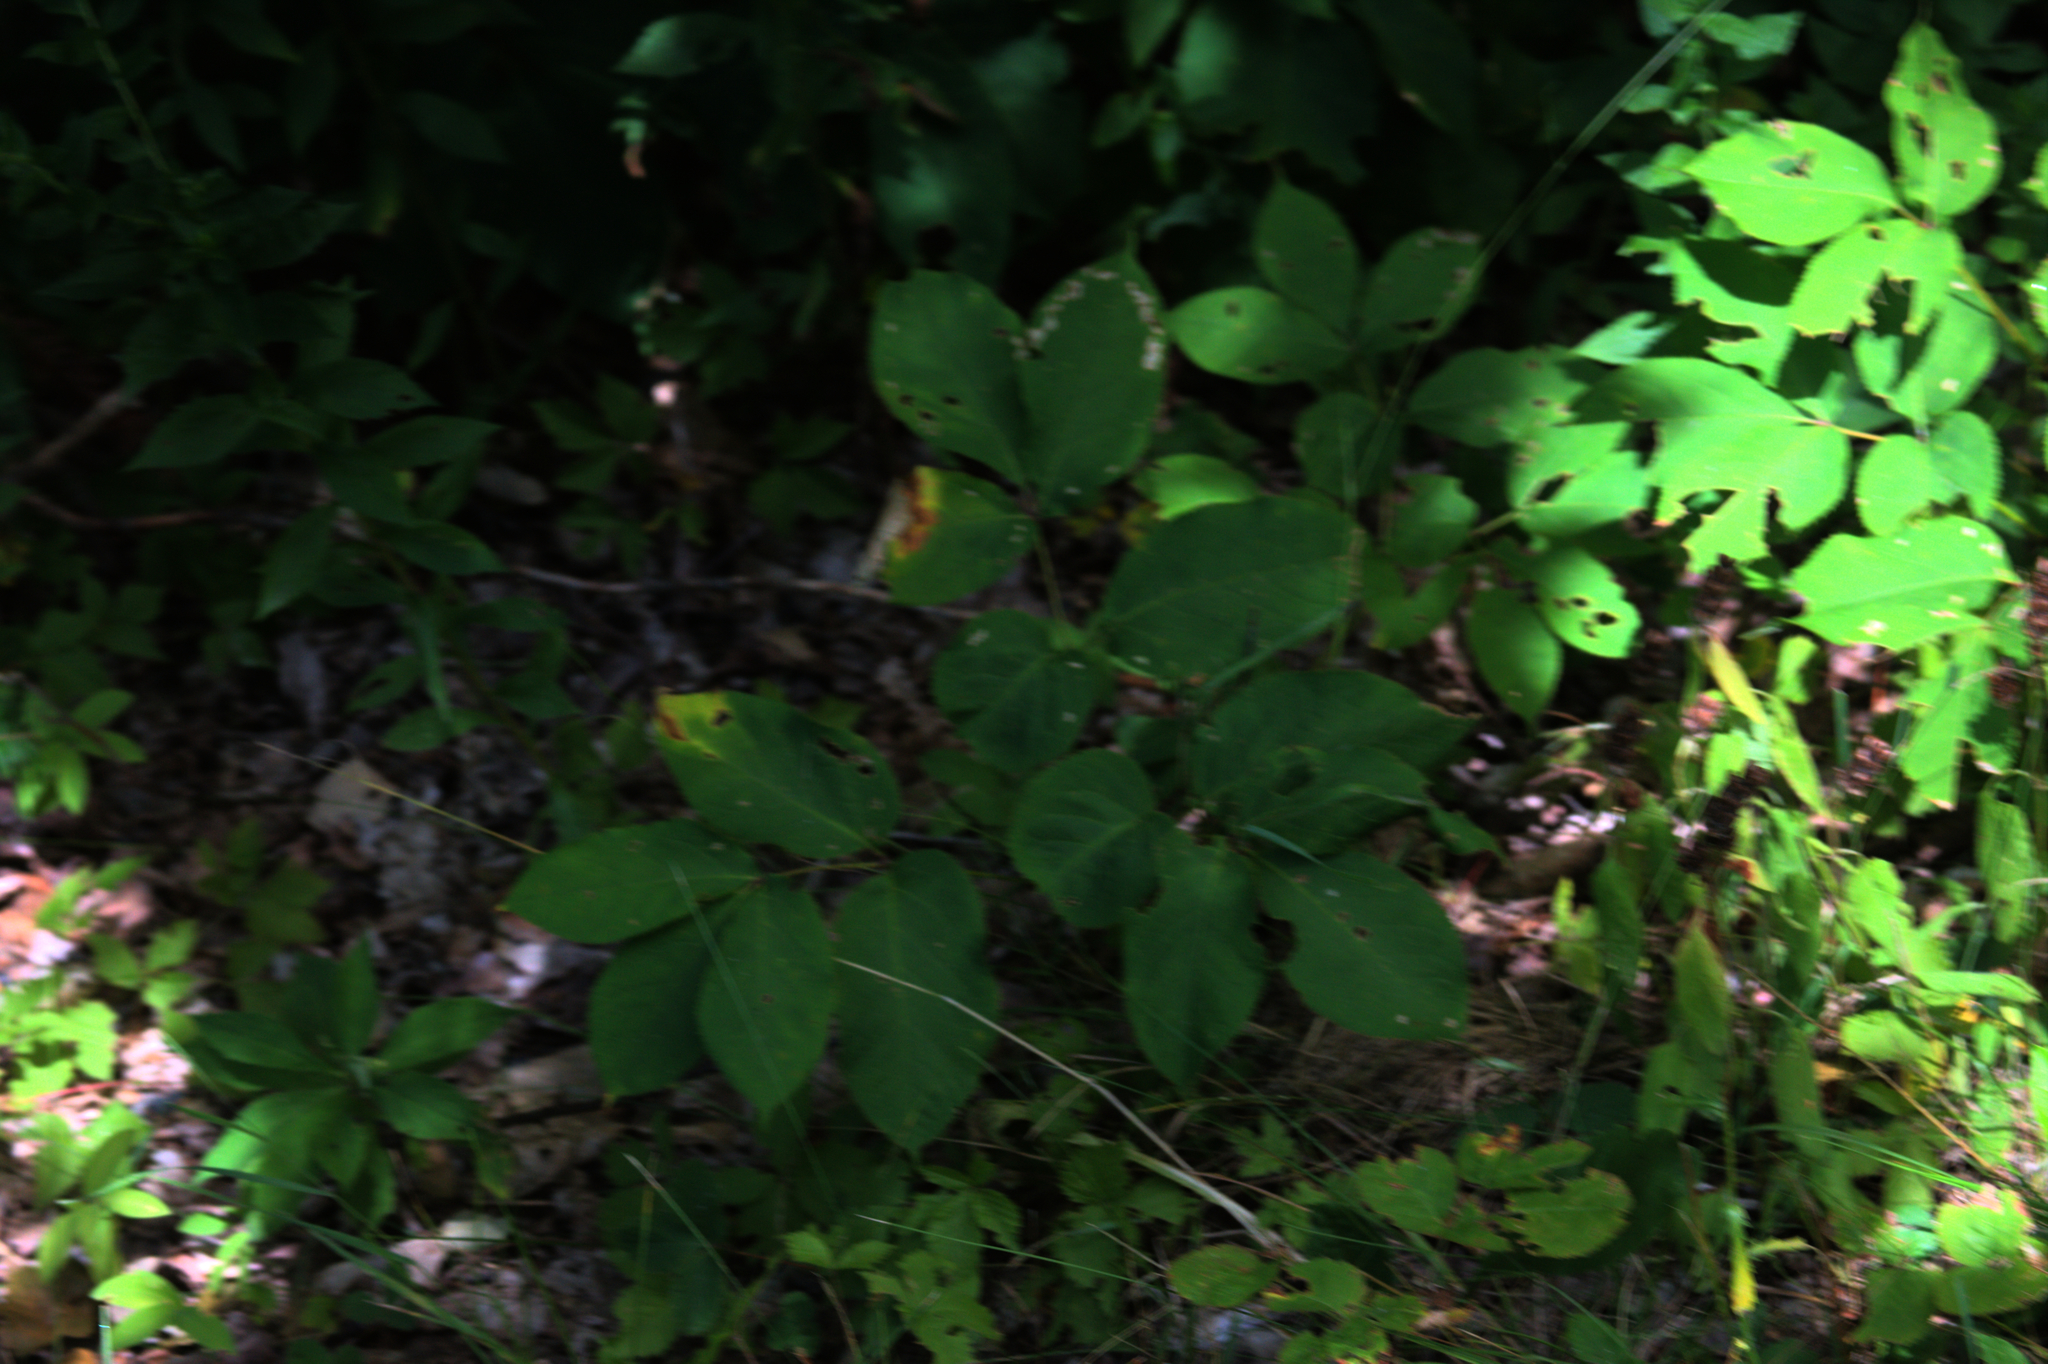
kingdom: Plantae
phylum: Tracheophyta
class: Magnoliopsida
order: Apiales
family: Araliaceae
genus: Aralia
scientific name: Aralia nudicaulis
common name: Wild sarsaparilla
